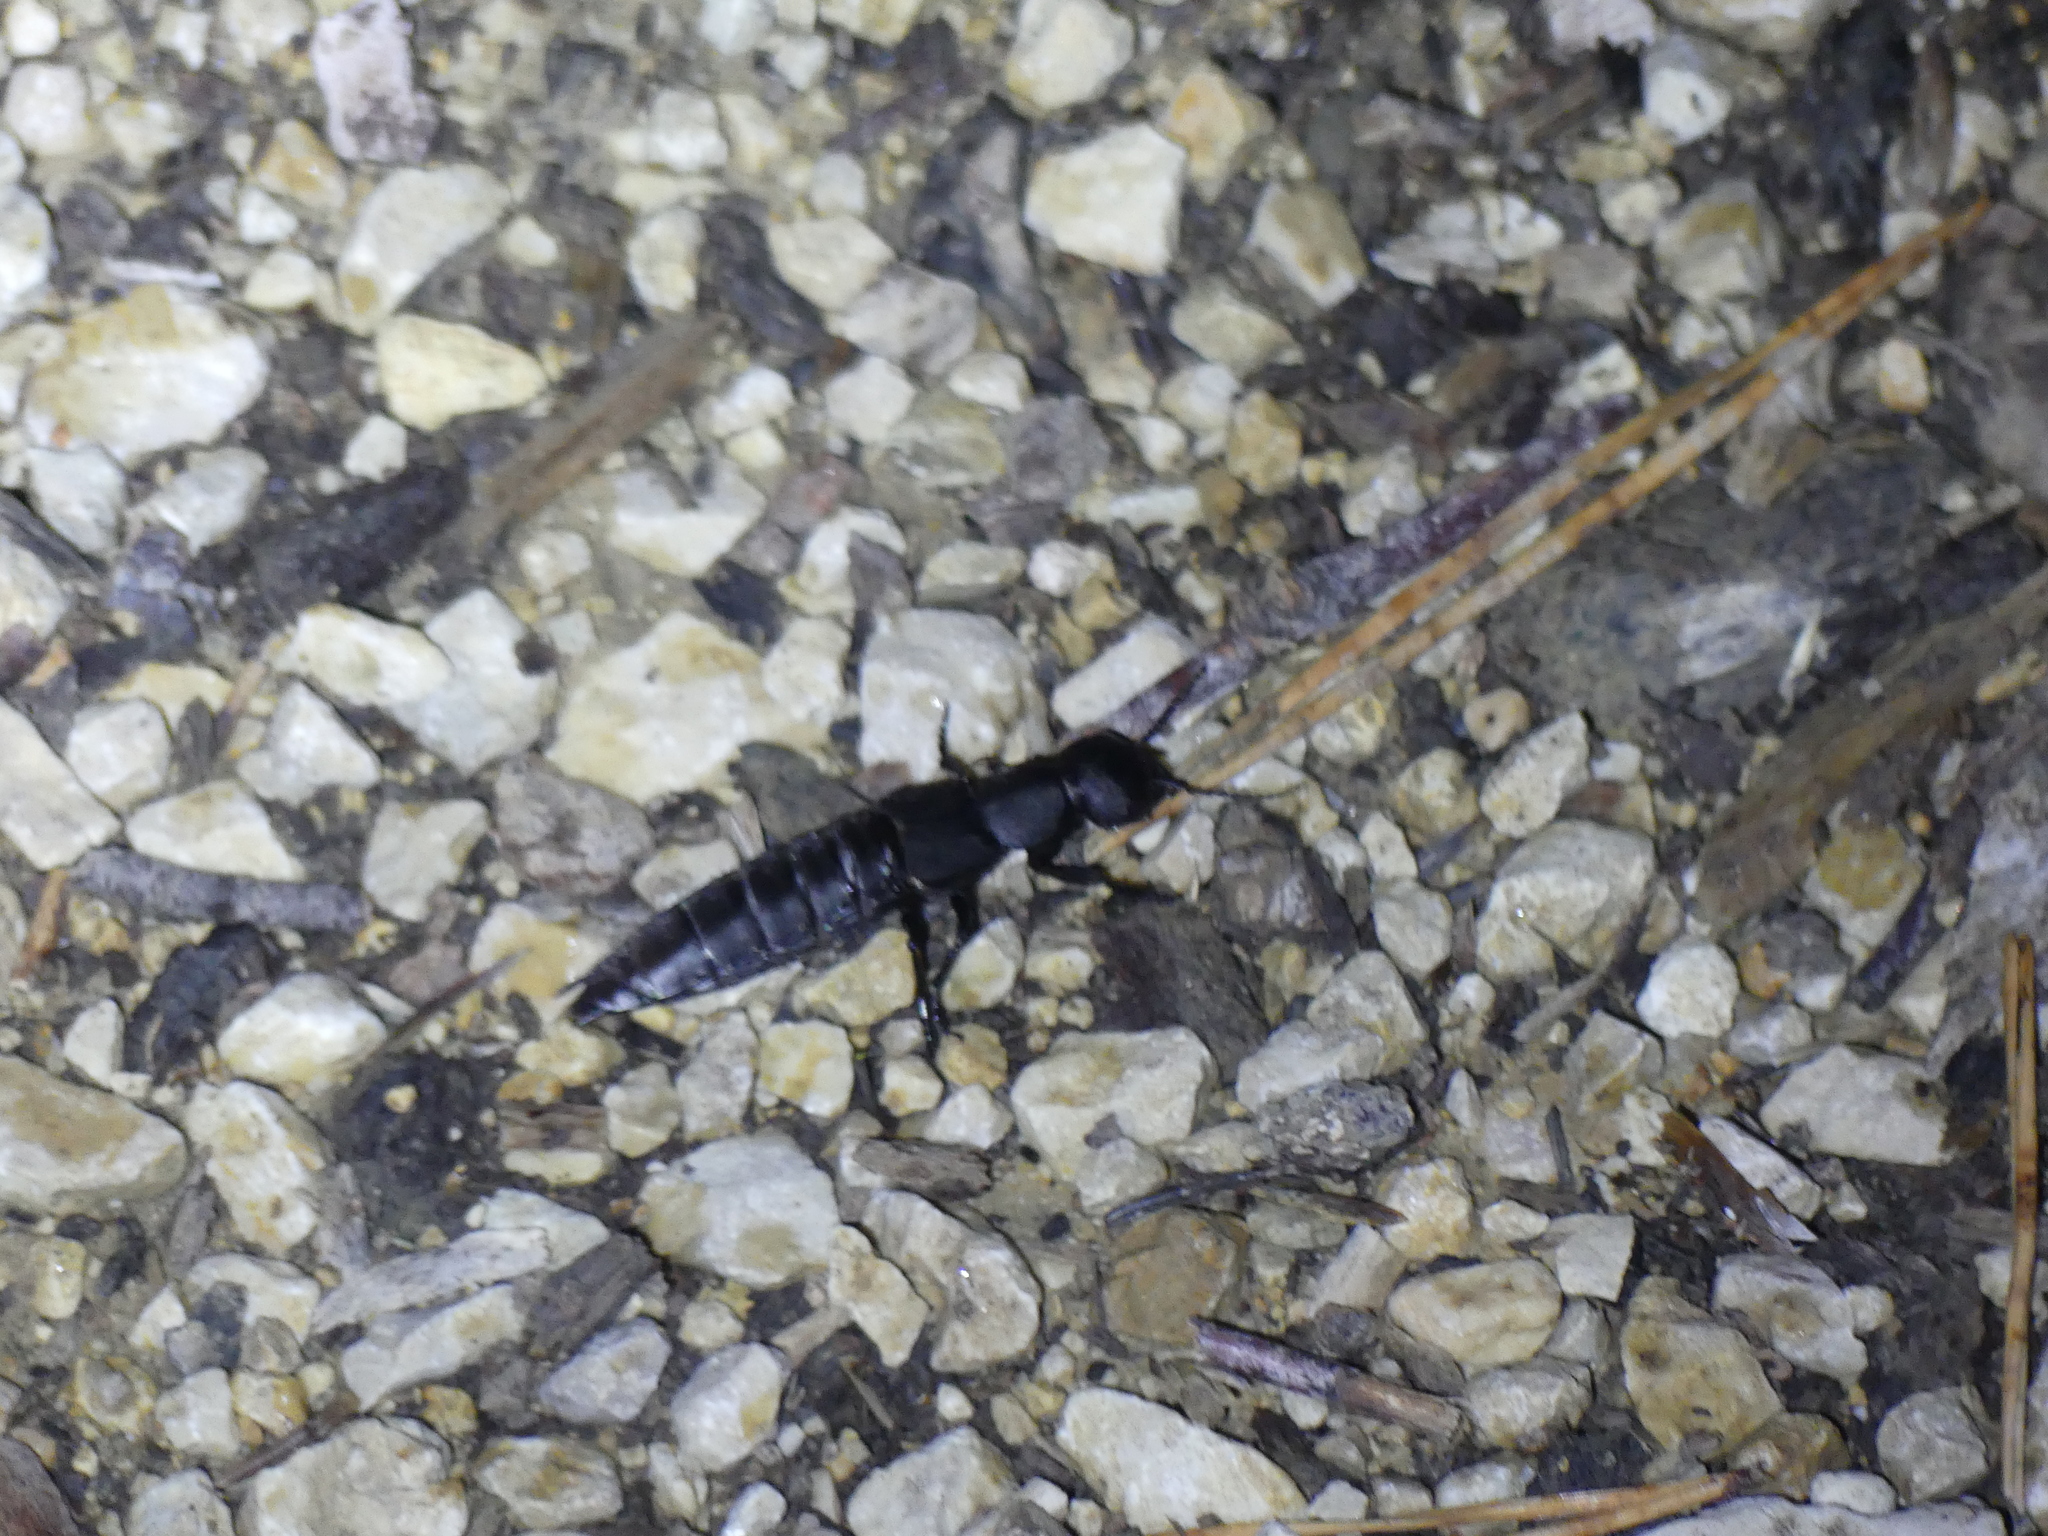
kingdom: Animalia
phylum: Arthropoda
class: Insecta
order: Coleoptera
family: Staphylinidae
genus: Ocypus
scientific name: Ocypus olens
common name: Devil's coach-horse
